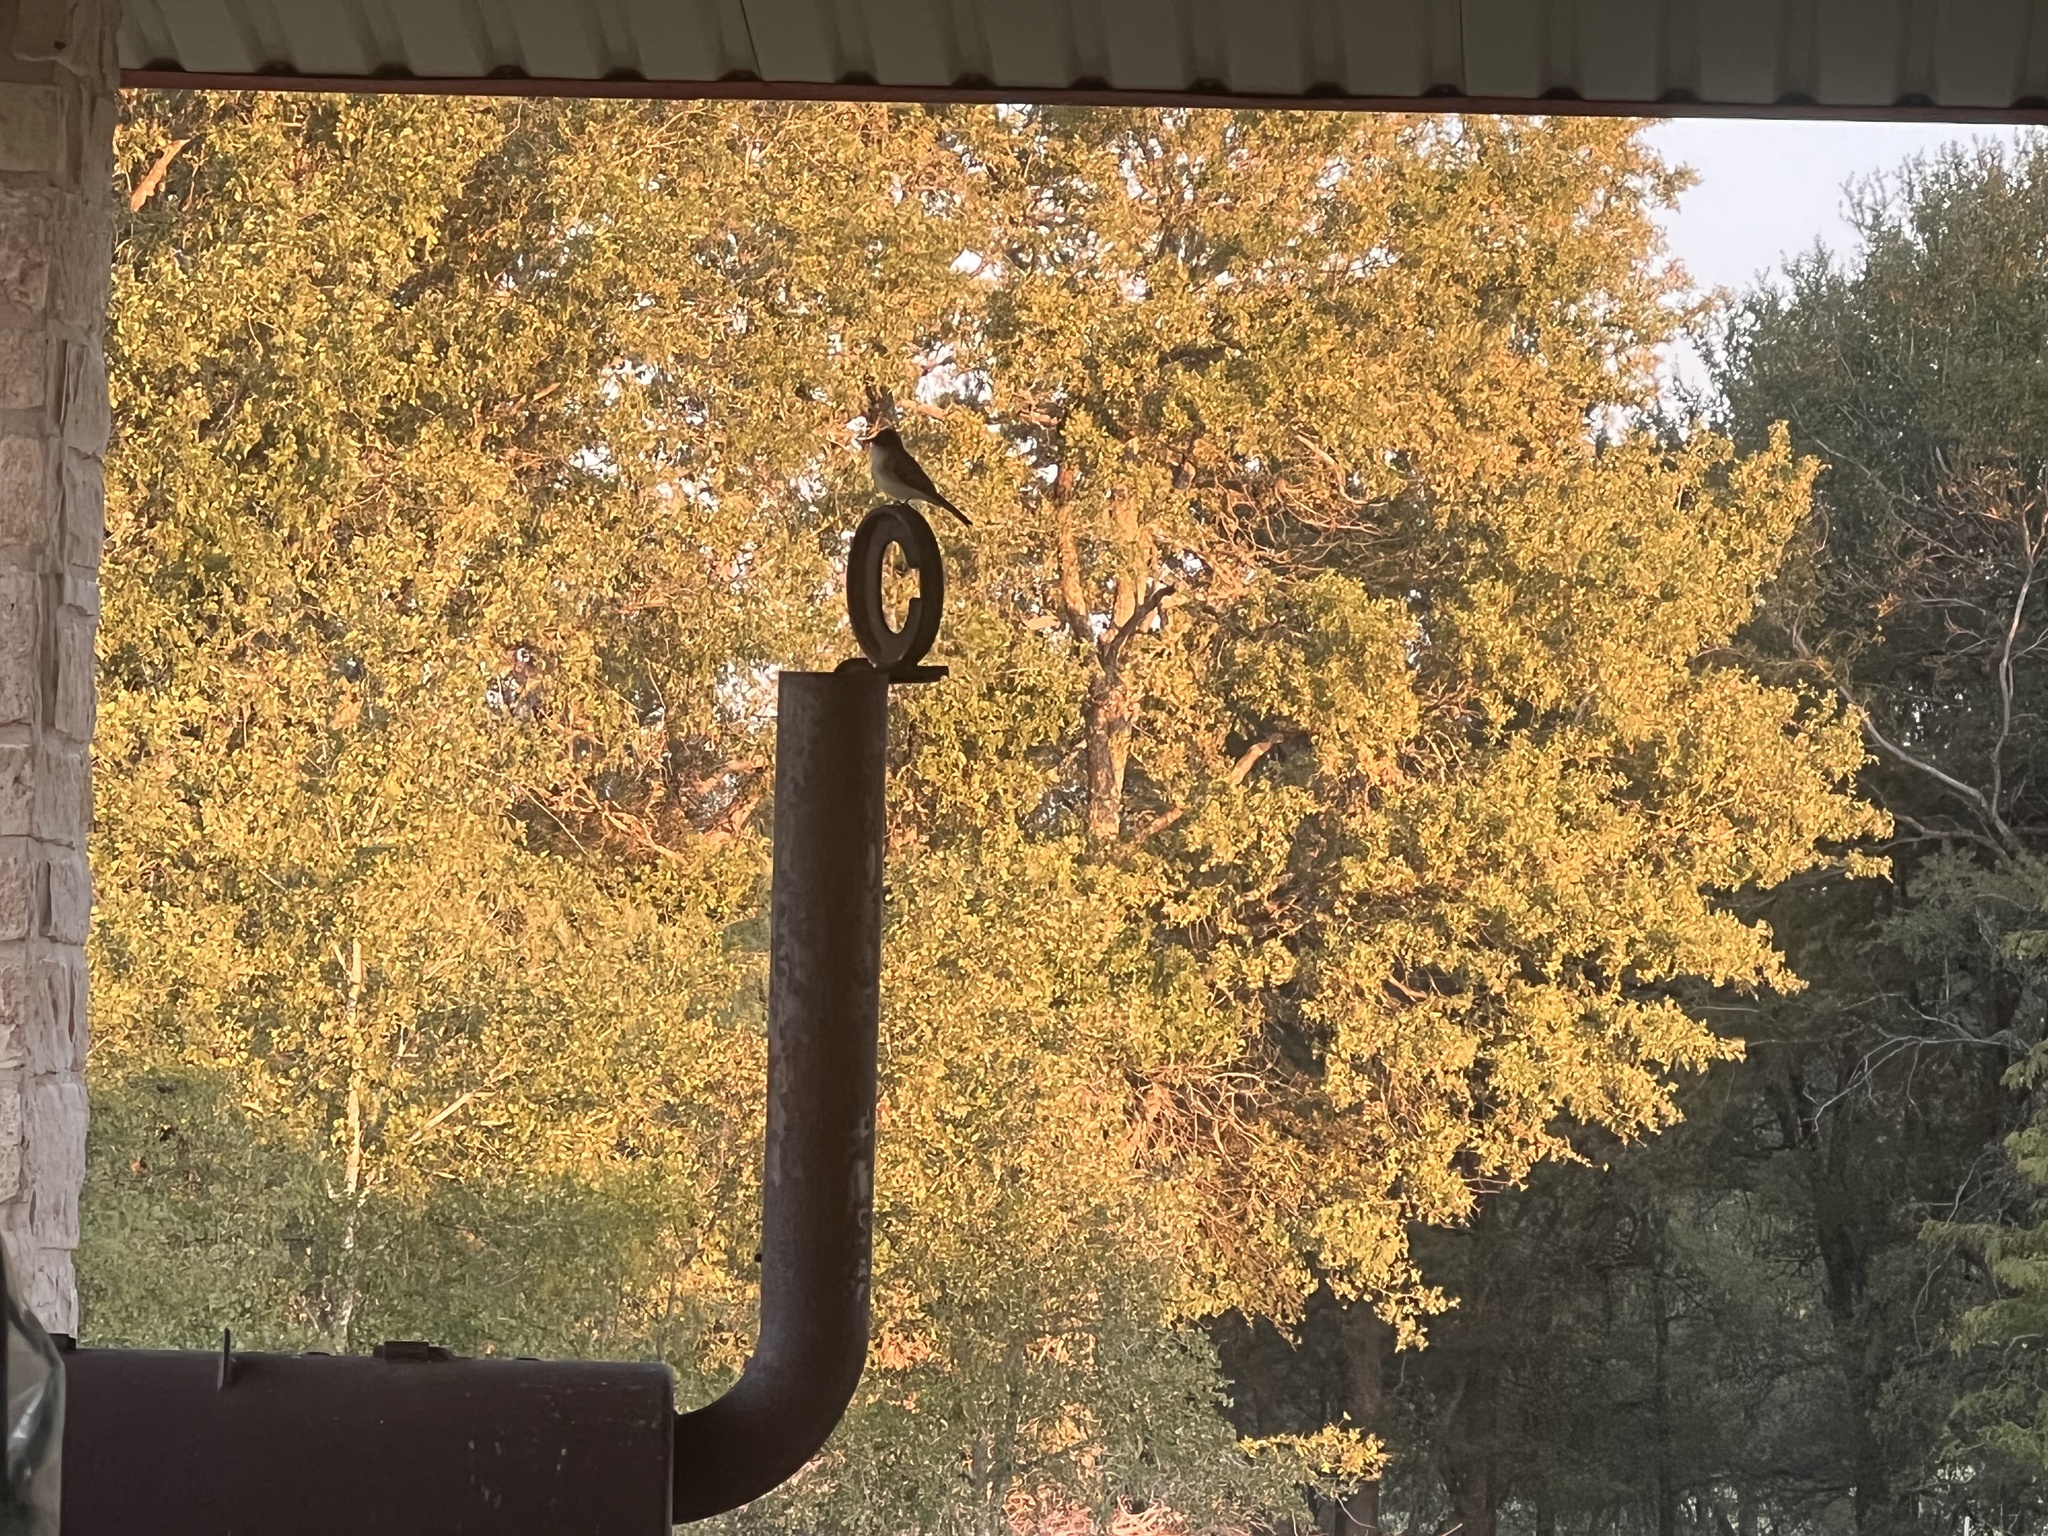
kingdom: Animalia
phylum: Chordata
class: Aves
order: Passeriformes
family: Tyrannidae
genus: Sayornis
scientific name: Sayornis phoebe
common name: Eastern phoebe
